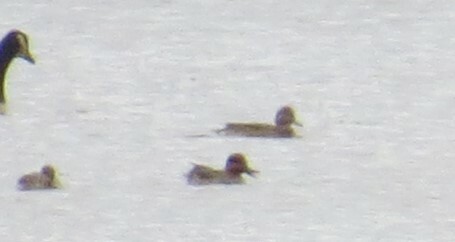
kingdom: Animalia
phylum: Chordata
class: Aves
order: Anseriformes
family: Anatidae
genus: Anas
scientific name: Anas crecca
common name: Eurasian teal
